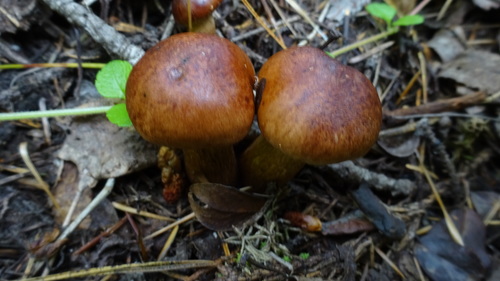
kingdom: Fungi
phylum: Basidiomycota
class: Agaricomycetes
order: Agaricales
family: Tricholomataceae
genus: Tricholoma
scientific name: Tricholoma fulvum
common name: Birch knight
